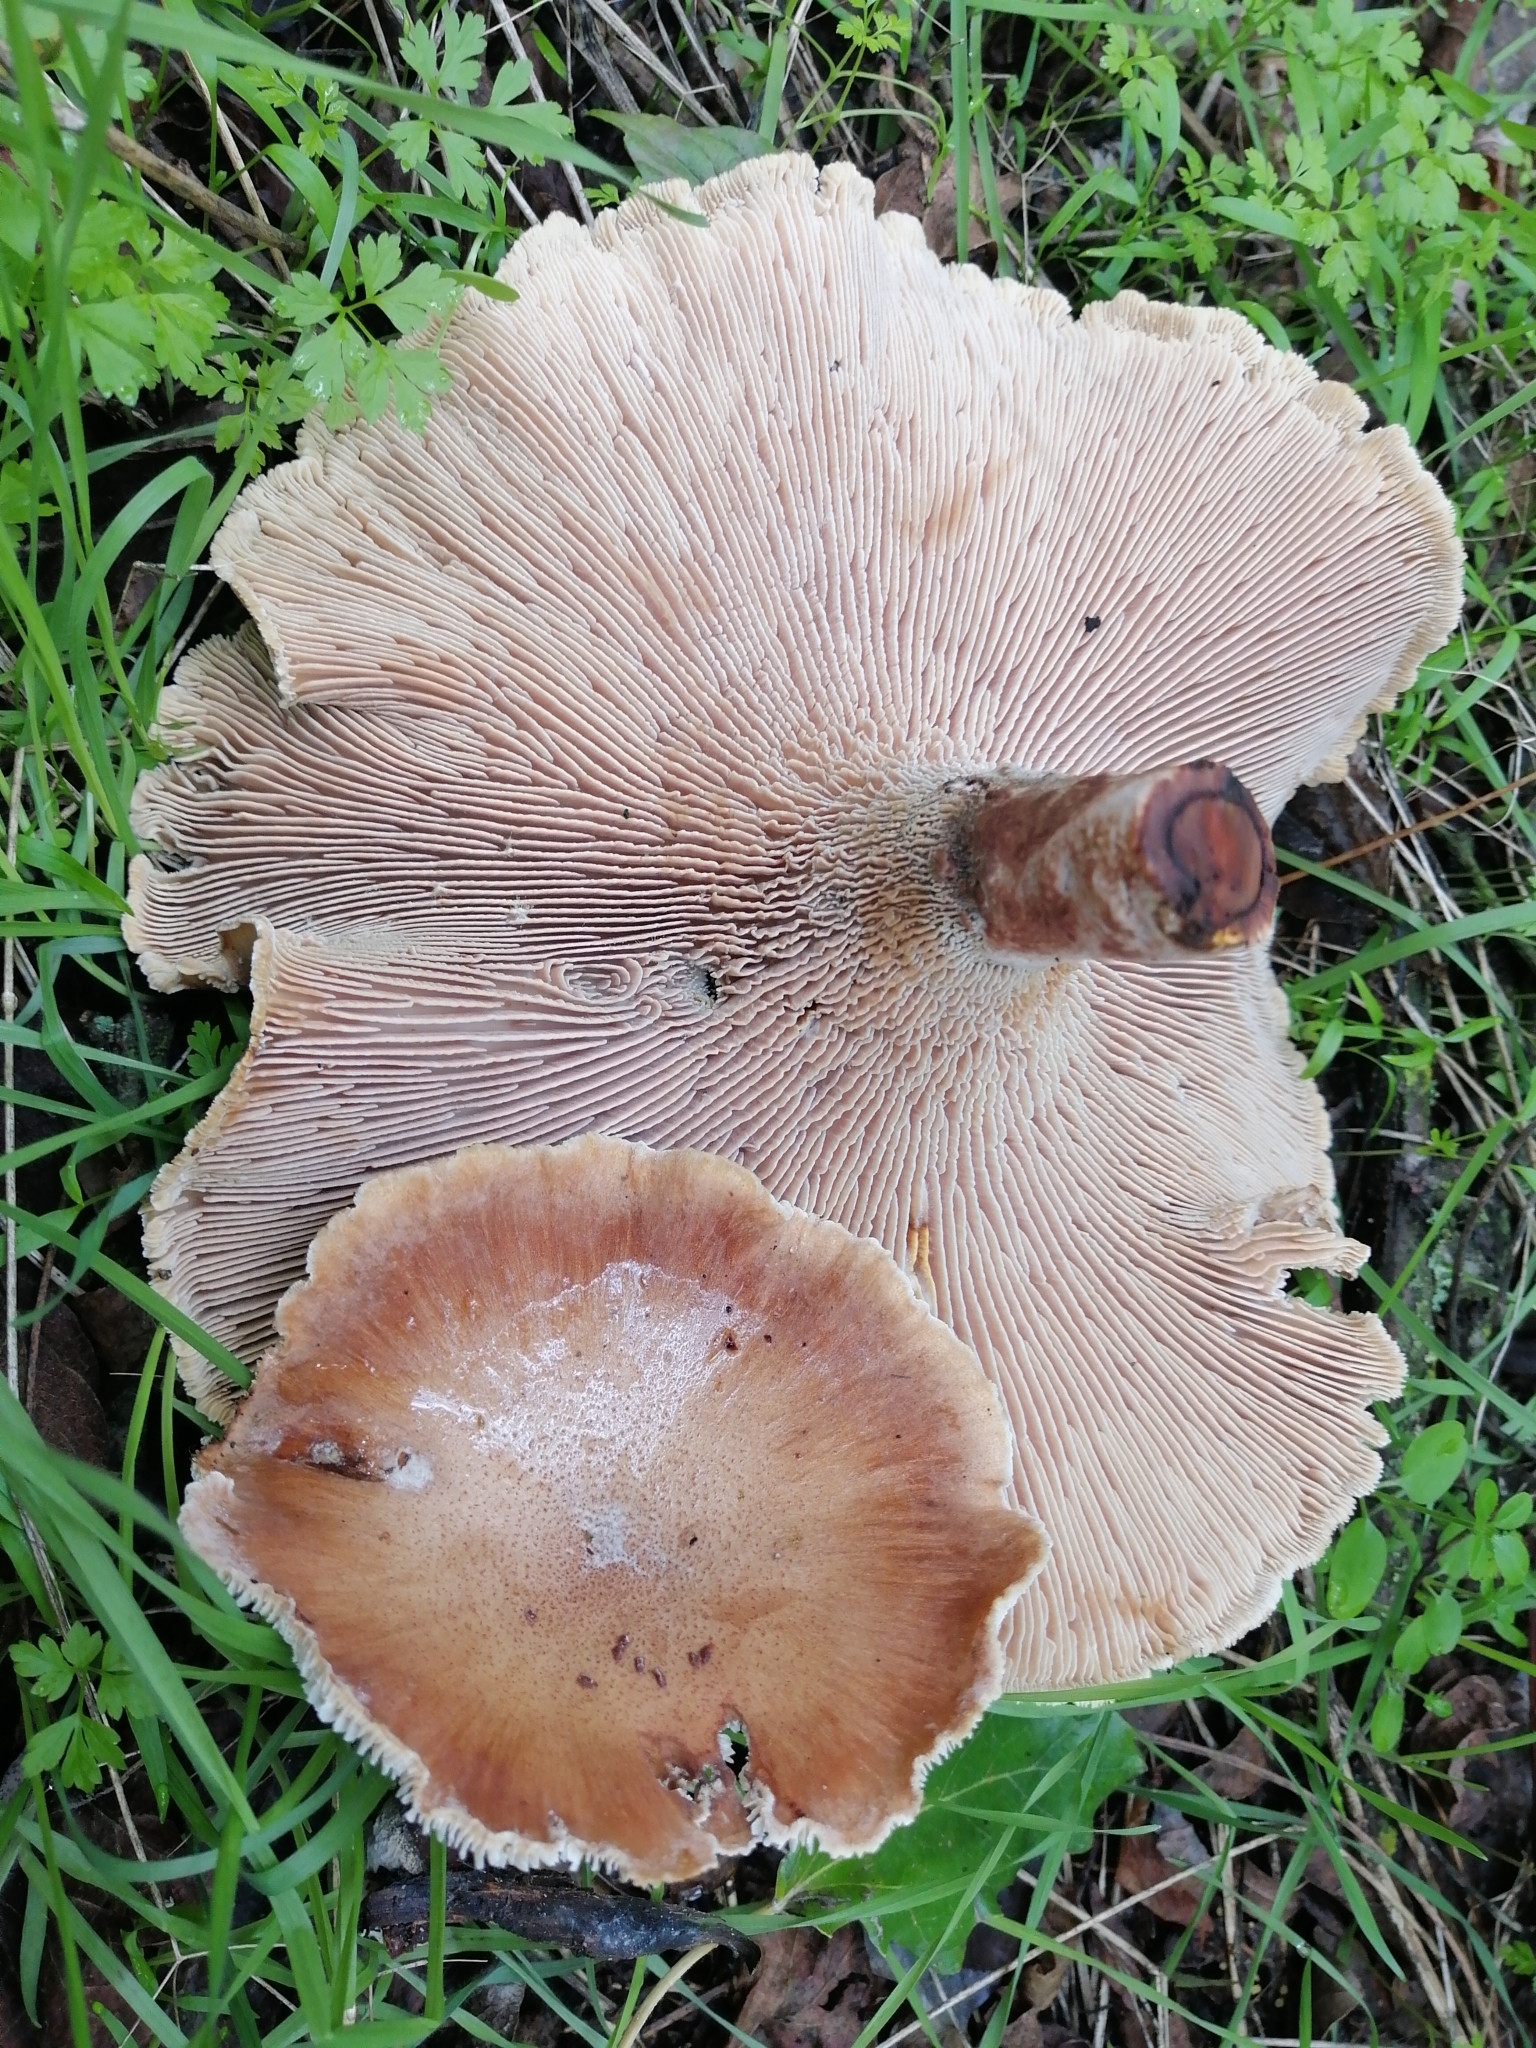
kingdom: Fungi
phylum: Basidiomycota
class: Agaricomycetes
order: Gloeophyllales
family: Gloeophyllaceae
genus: Neolentinus
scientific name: Neolentinus cyathiformis
